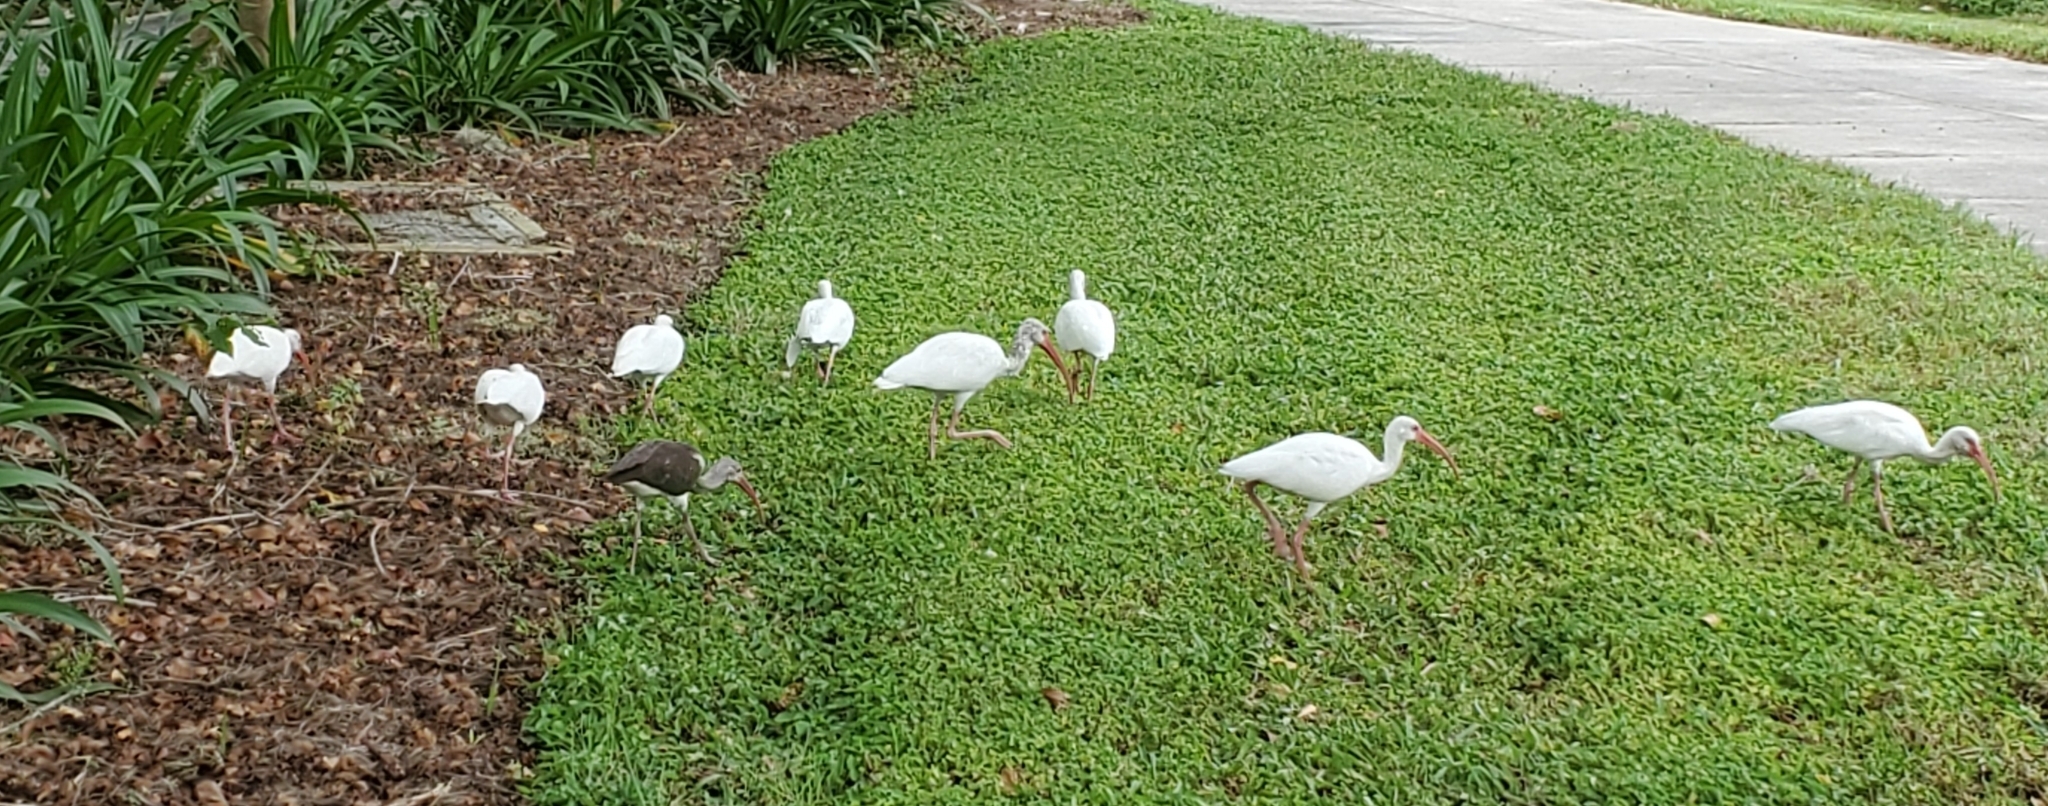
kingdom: Animalia
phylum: Chordata
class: Aves
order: Pelecaniformes
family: Threskiornithidae
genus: Eudocimus
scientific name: Eudocimus albus
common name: White ibis
